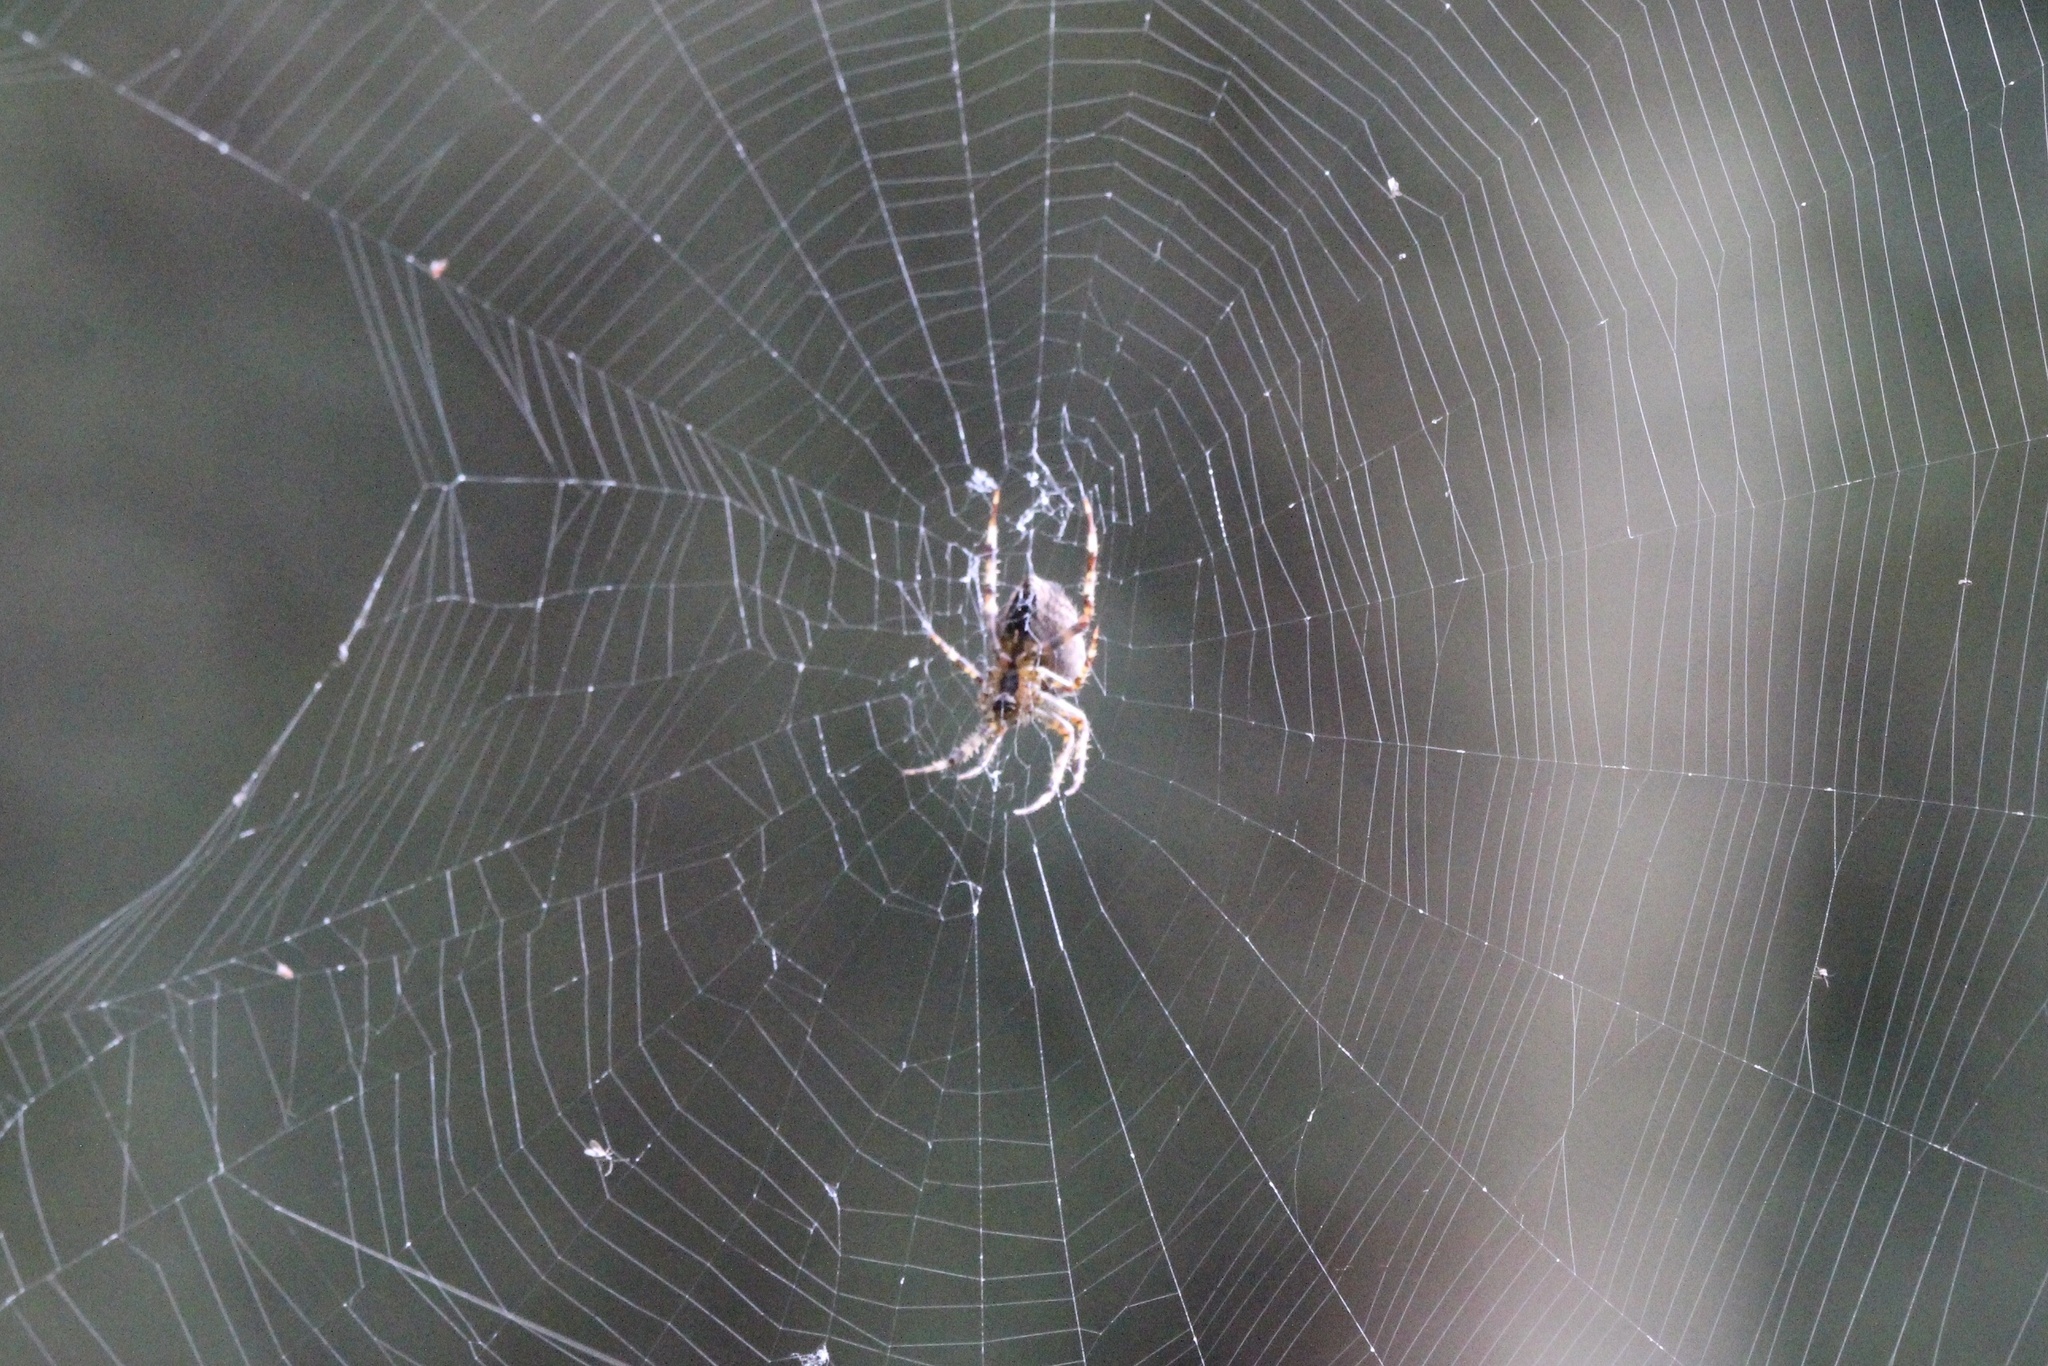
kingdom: Animalia
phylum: Arthropoda
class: Arachnida
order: Araneae
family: Araneidae
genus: Araneus
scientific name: Araneus diadematus
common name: Cross orbweaver
